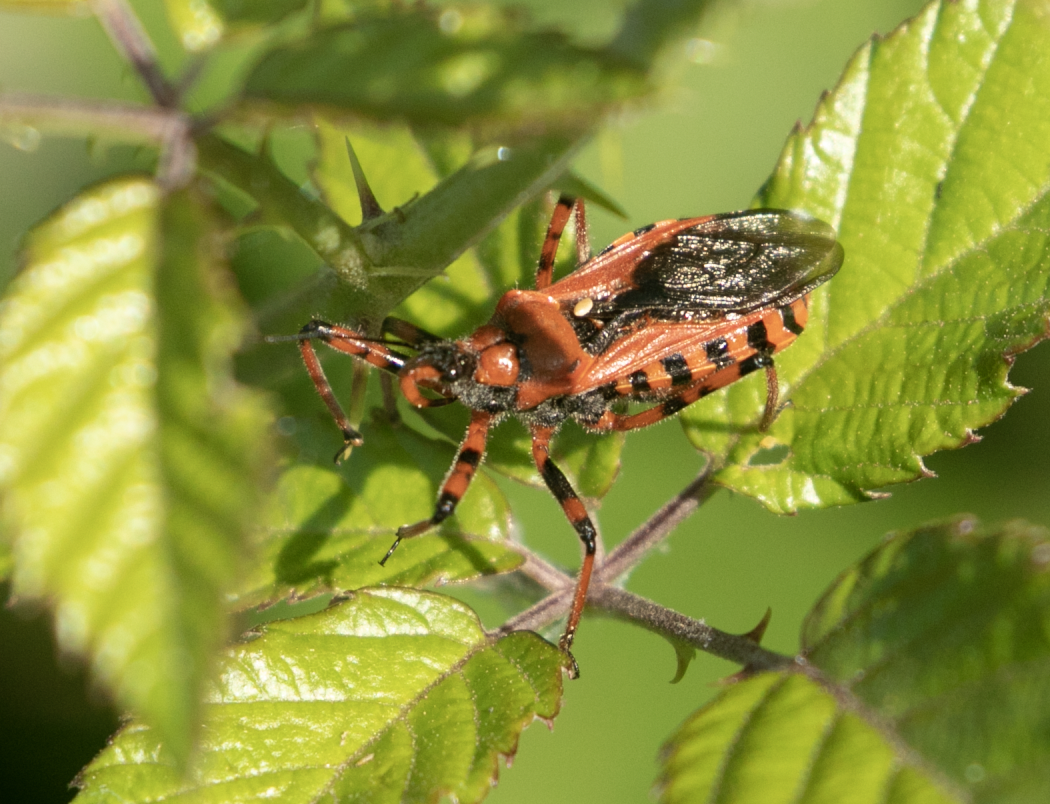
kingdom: Animalia
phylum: Arthropoda
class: Insecta
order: Hemiptera
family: Reduviidae
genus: Rhynocoris
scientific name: Rhynocoris iracundus
